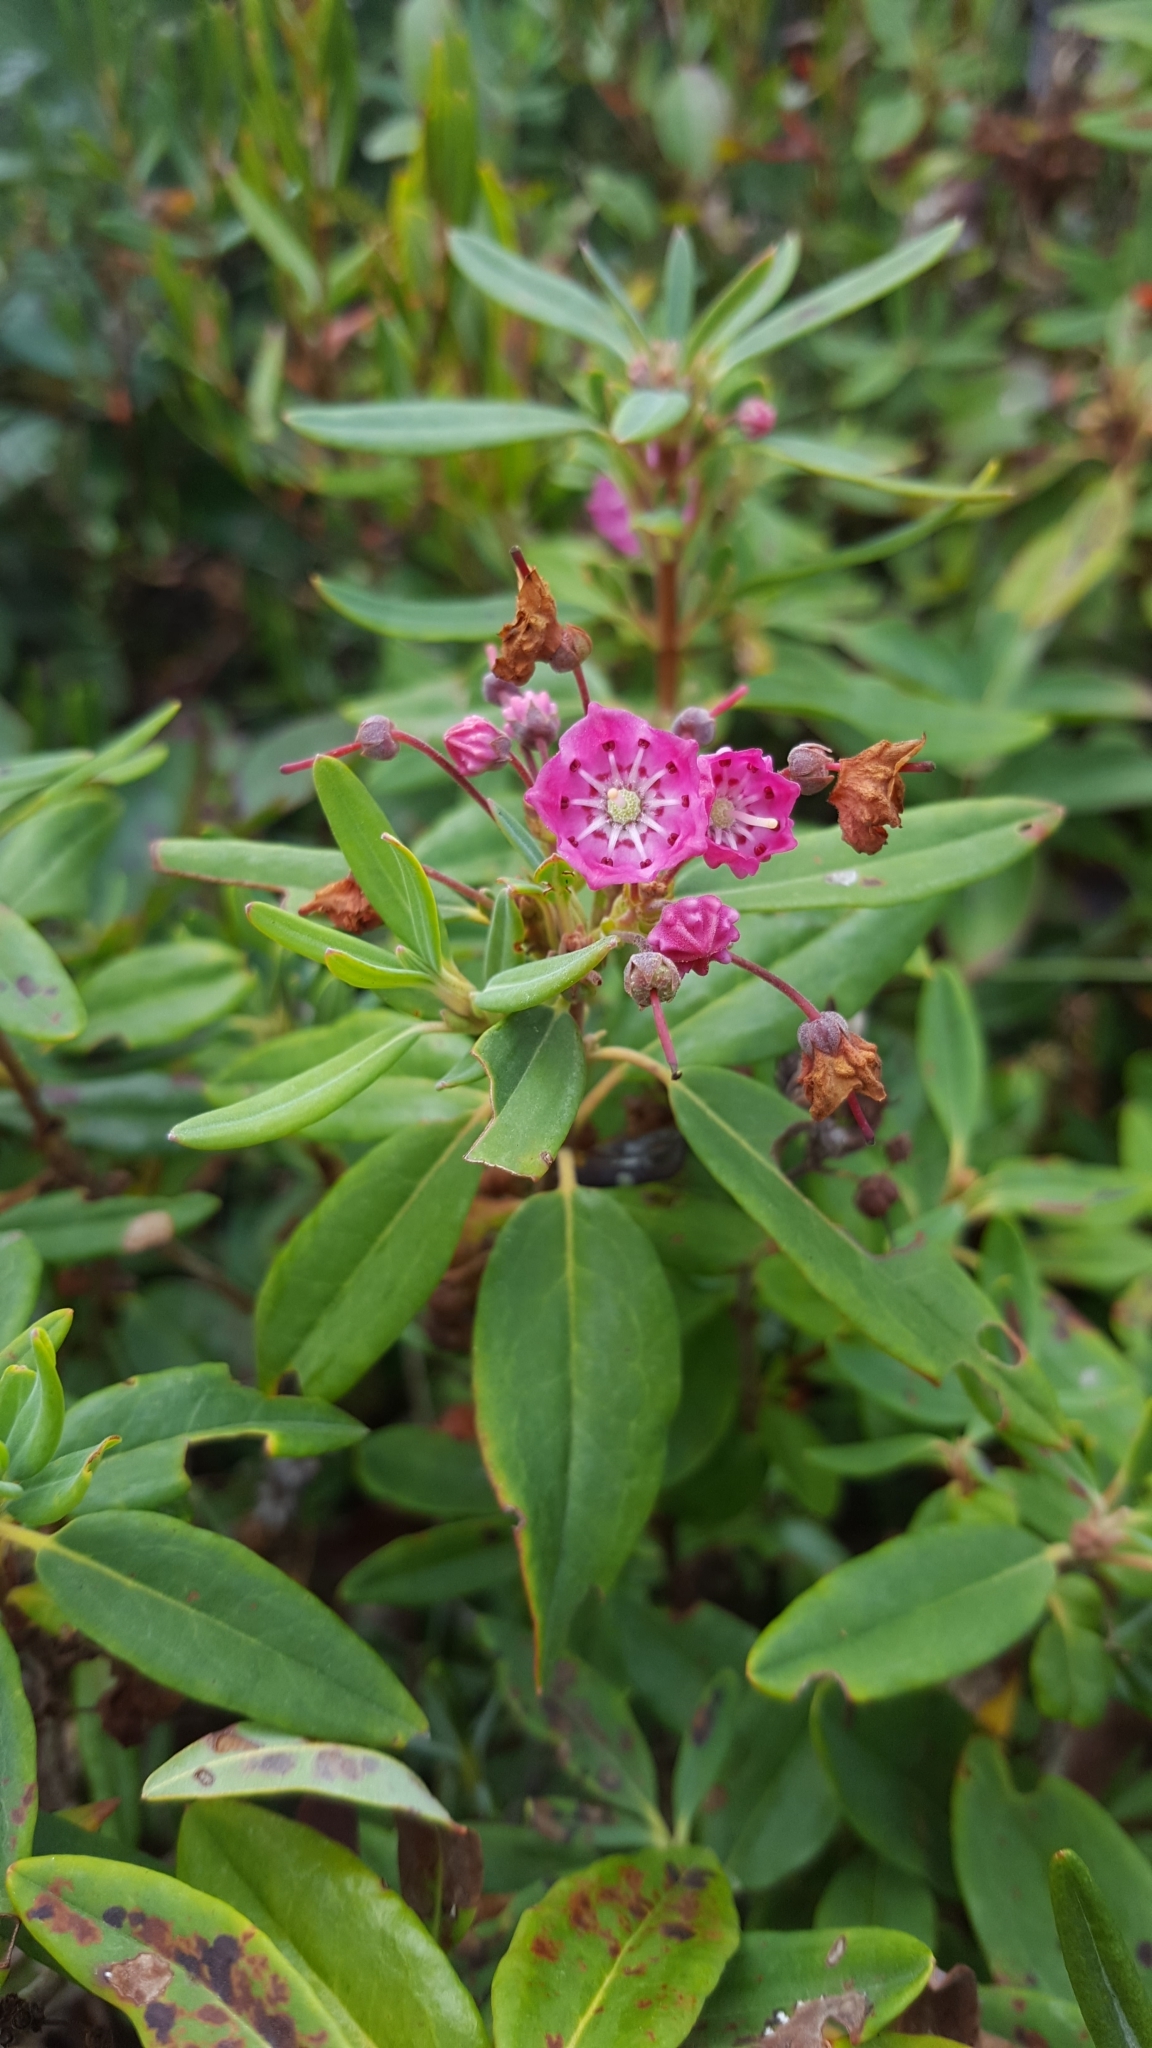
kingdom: Plantae
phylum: Tracheophyta
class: Magnoliopsida
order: Ericales
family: Ericaceae
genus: Kalmia
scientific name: Kalmia angustifolia
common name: Sheep-laurel
